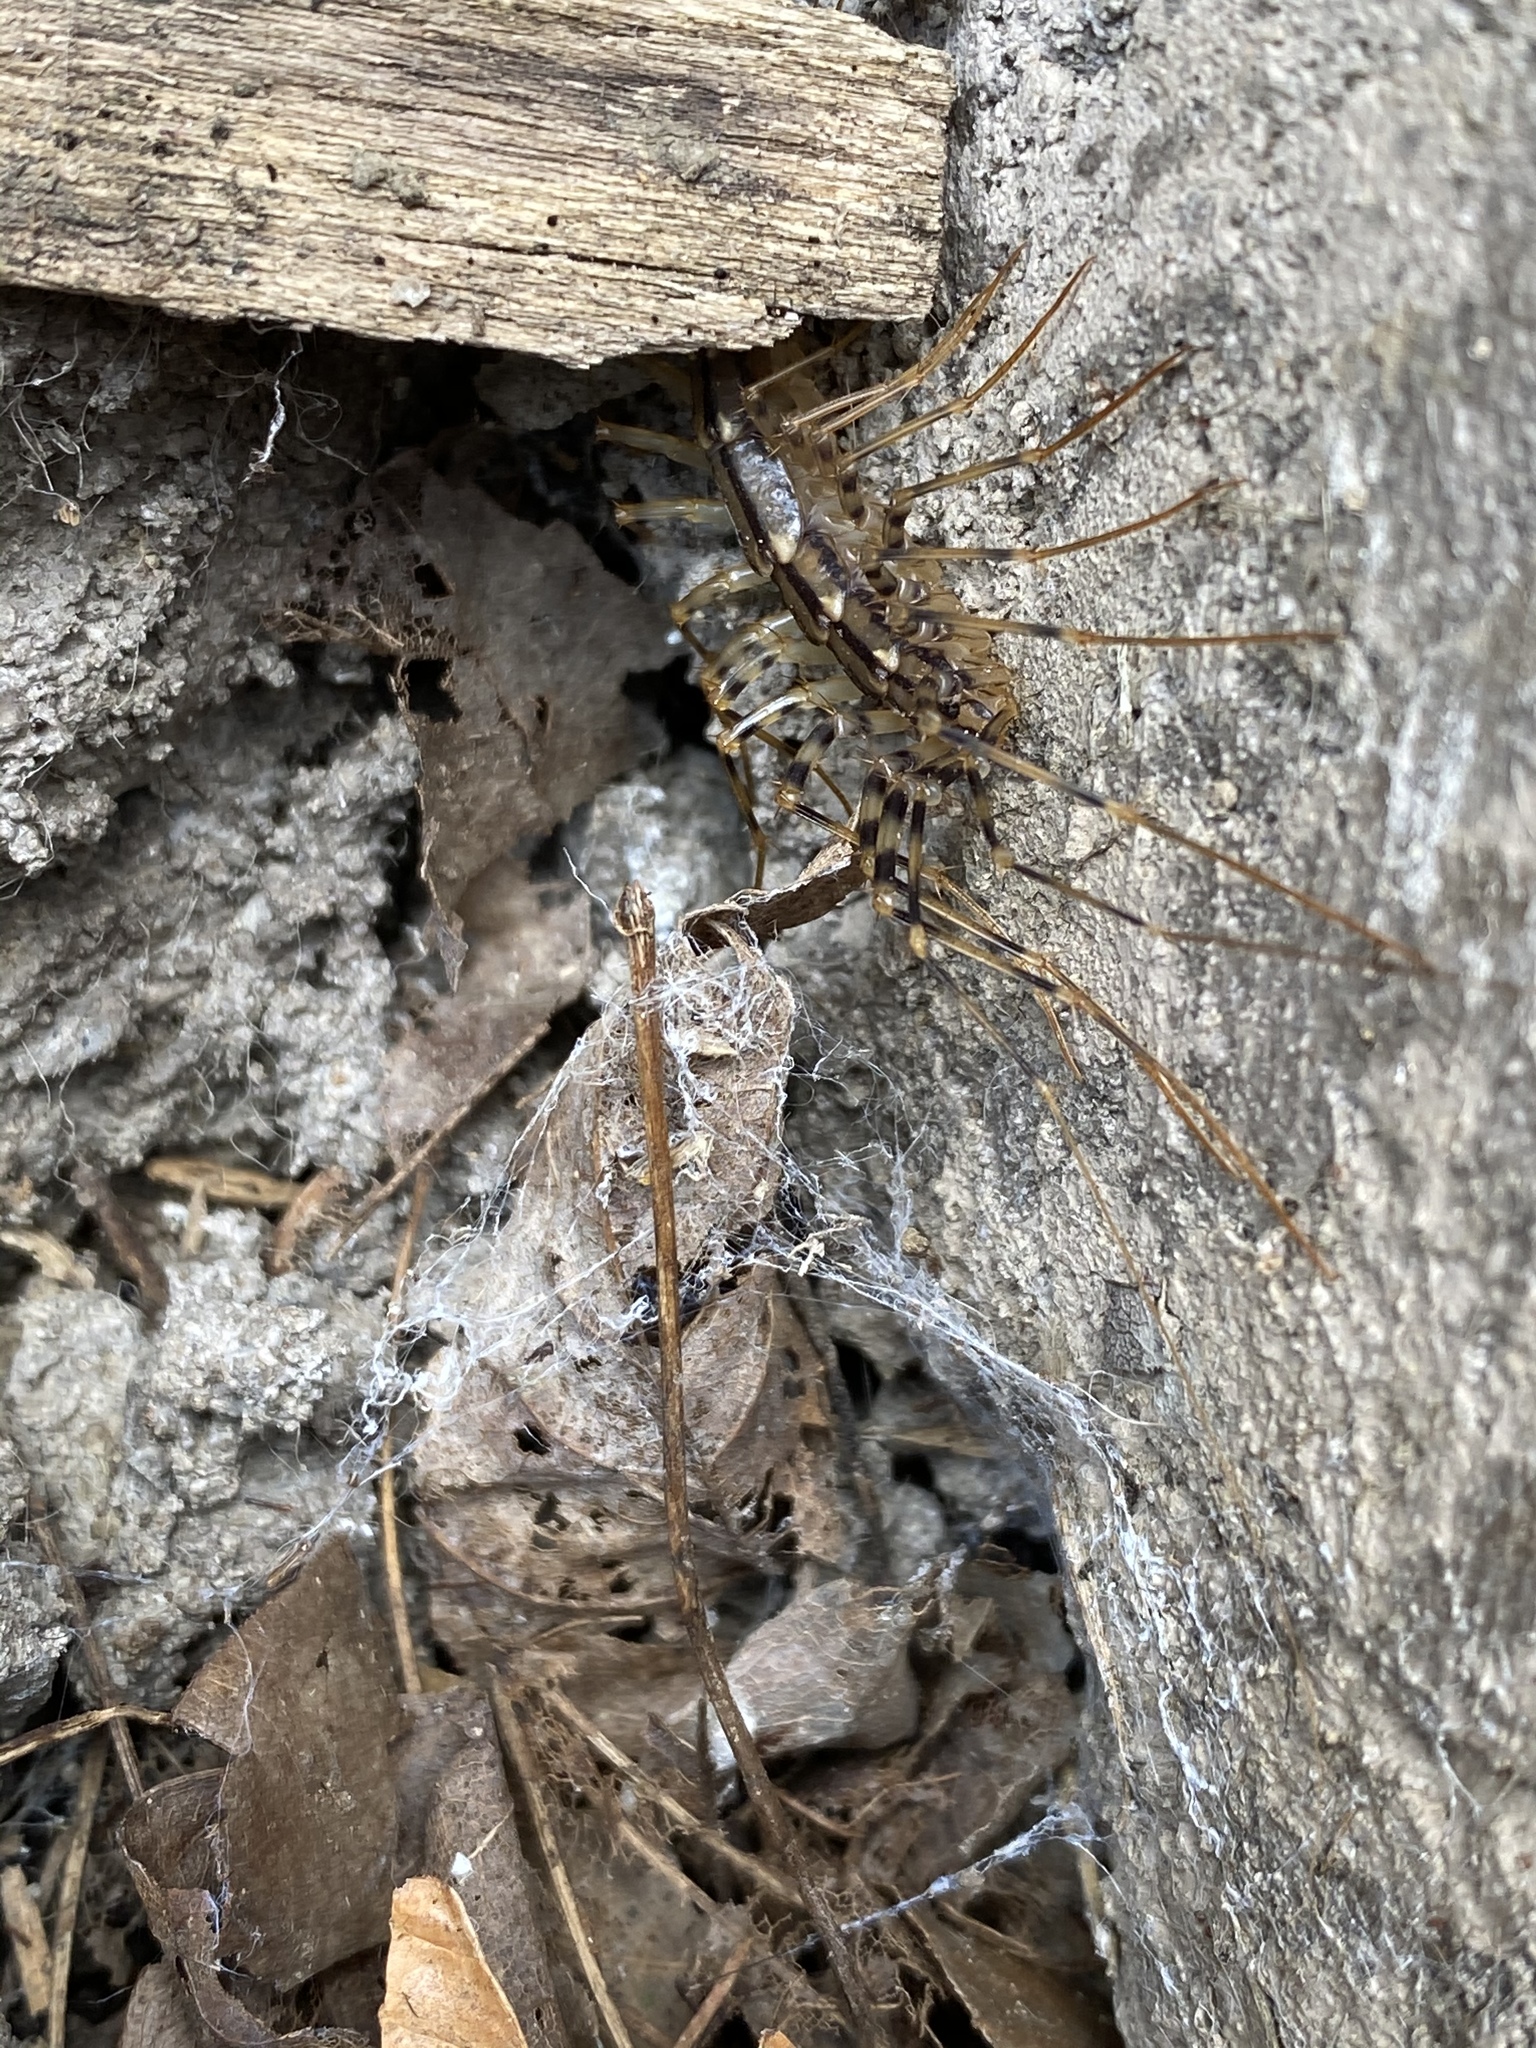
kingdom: Animalia
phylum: Arthropoda
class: Chilopoda
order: Scutigeromorpha
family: Scutigeridae
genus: Scutigera
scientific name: Scutigera coleoptrata
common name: House centipede
